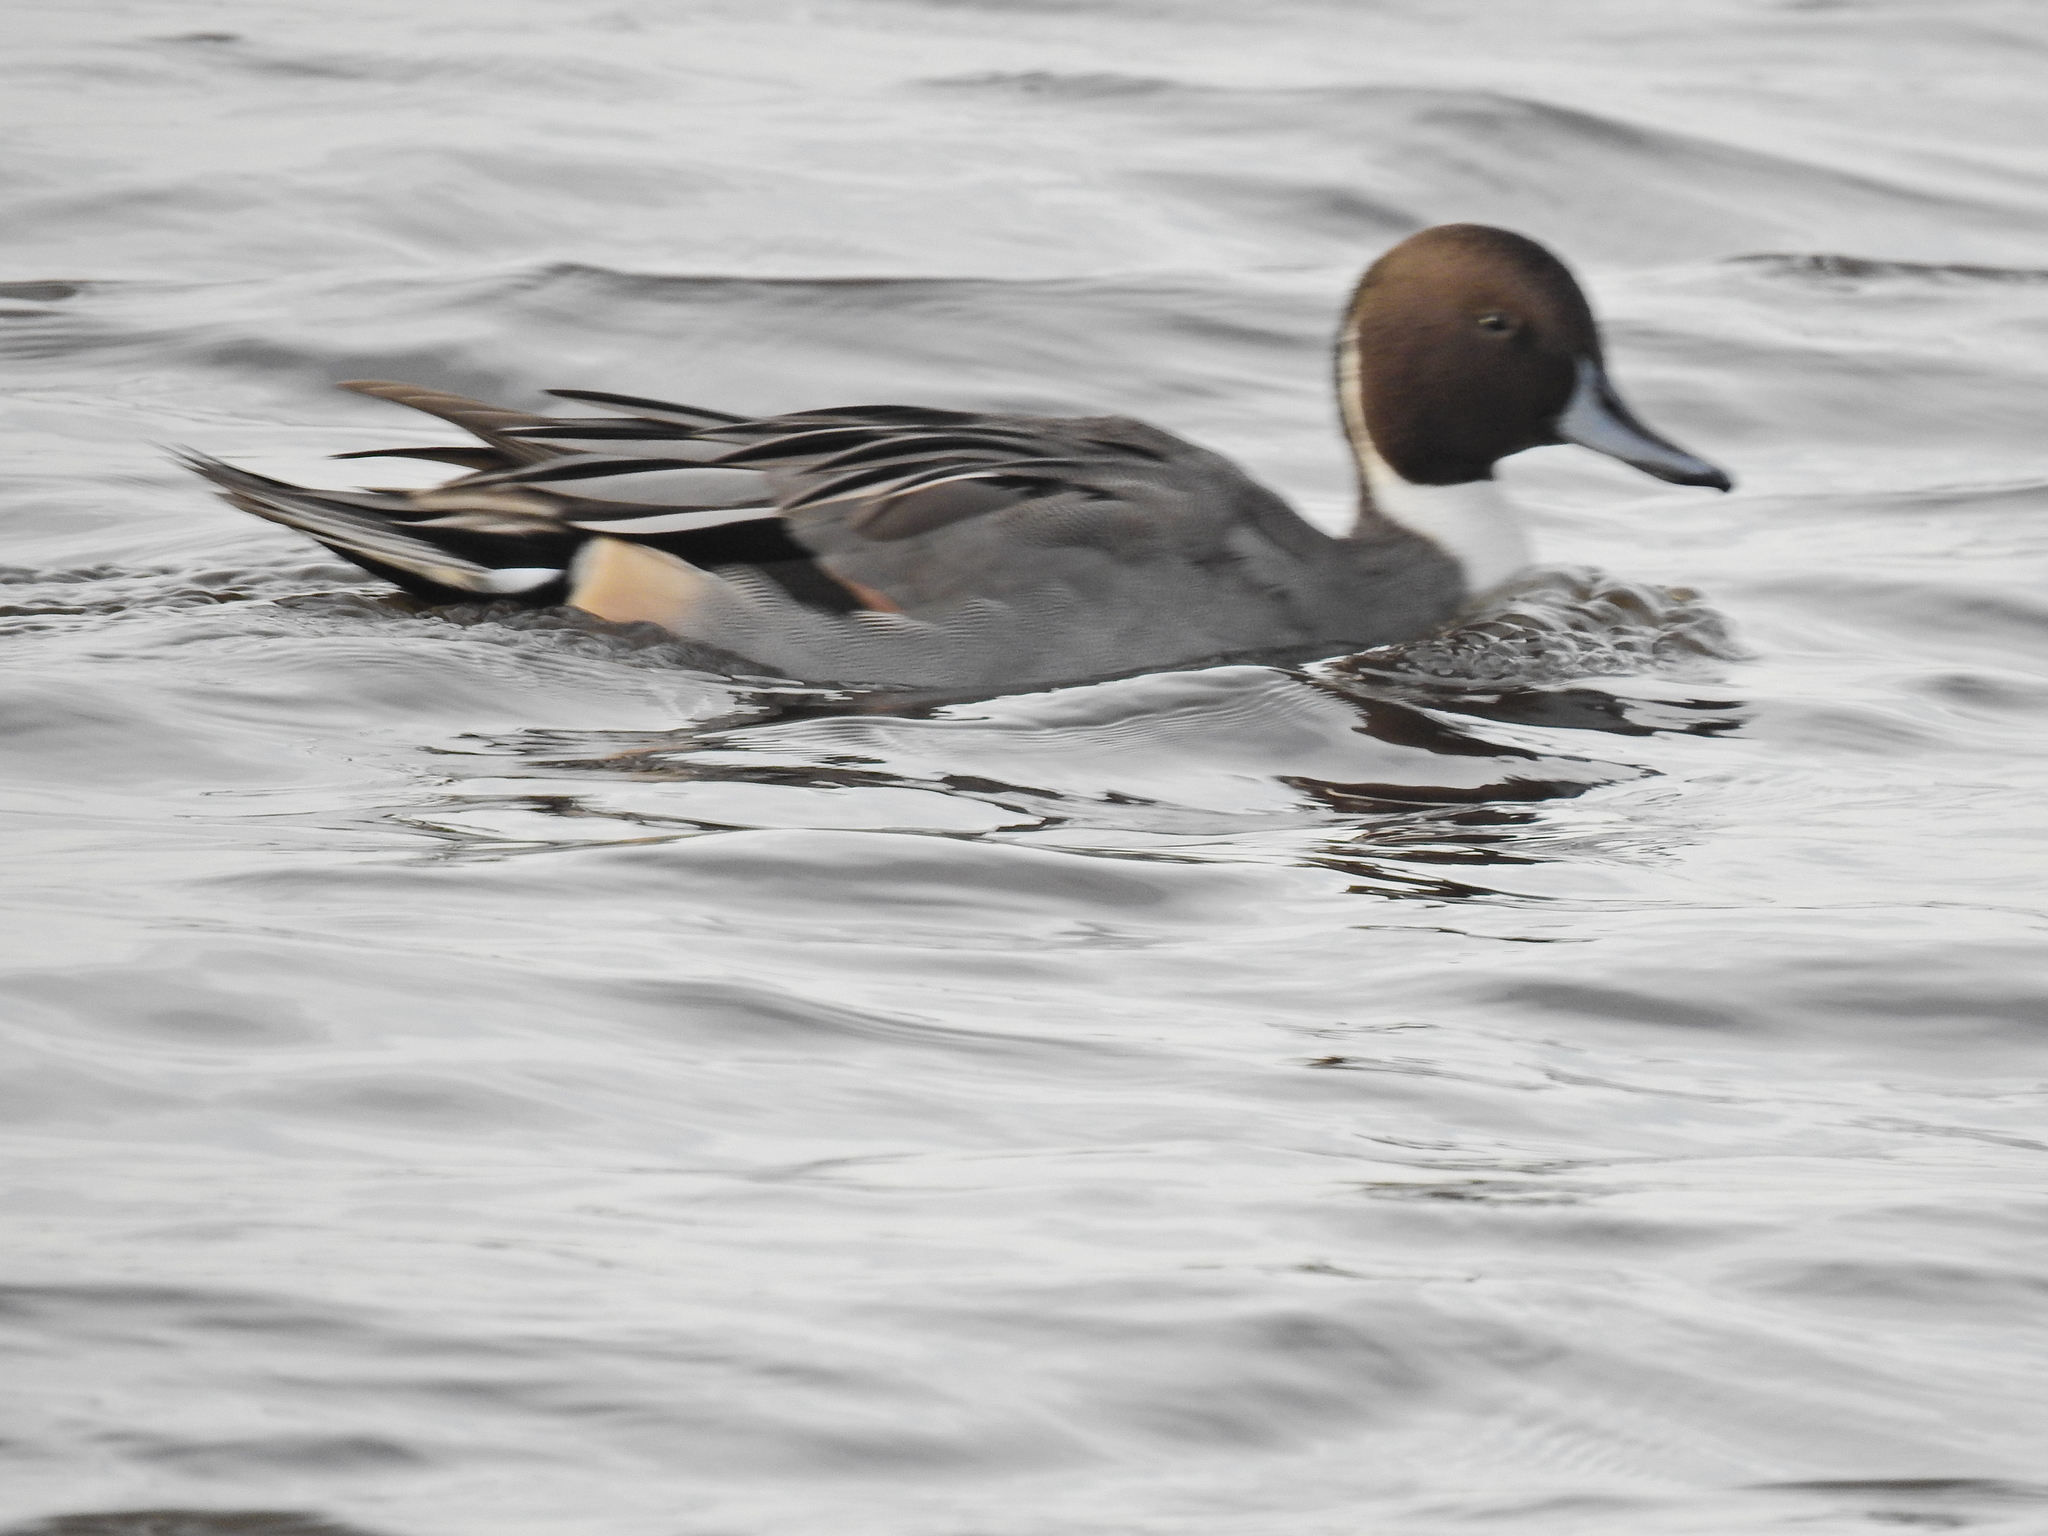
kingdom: Animalia
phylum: Chordata
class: Aves
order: Anseriformes
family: Anatidae
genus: Anas
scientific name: Anas acuta
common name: Northern pintail
